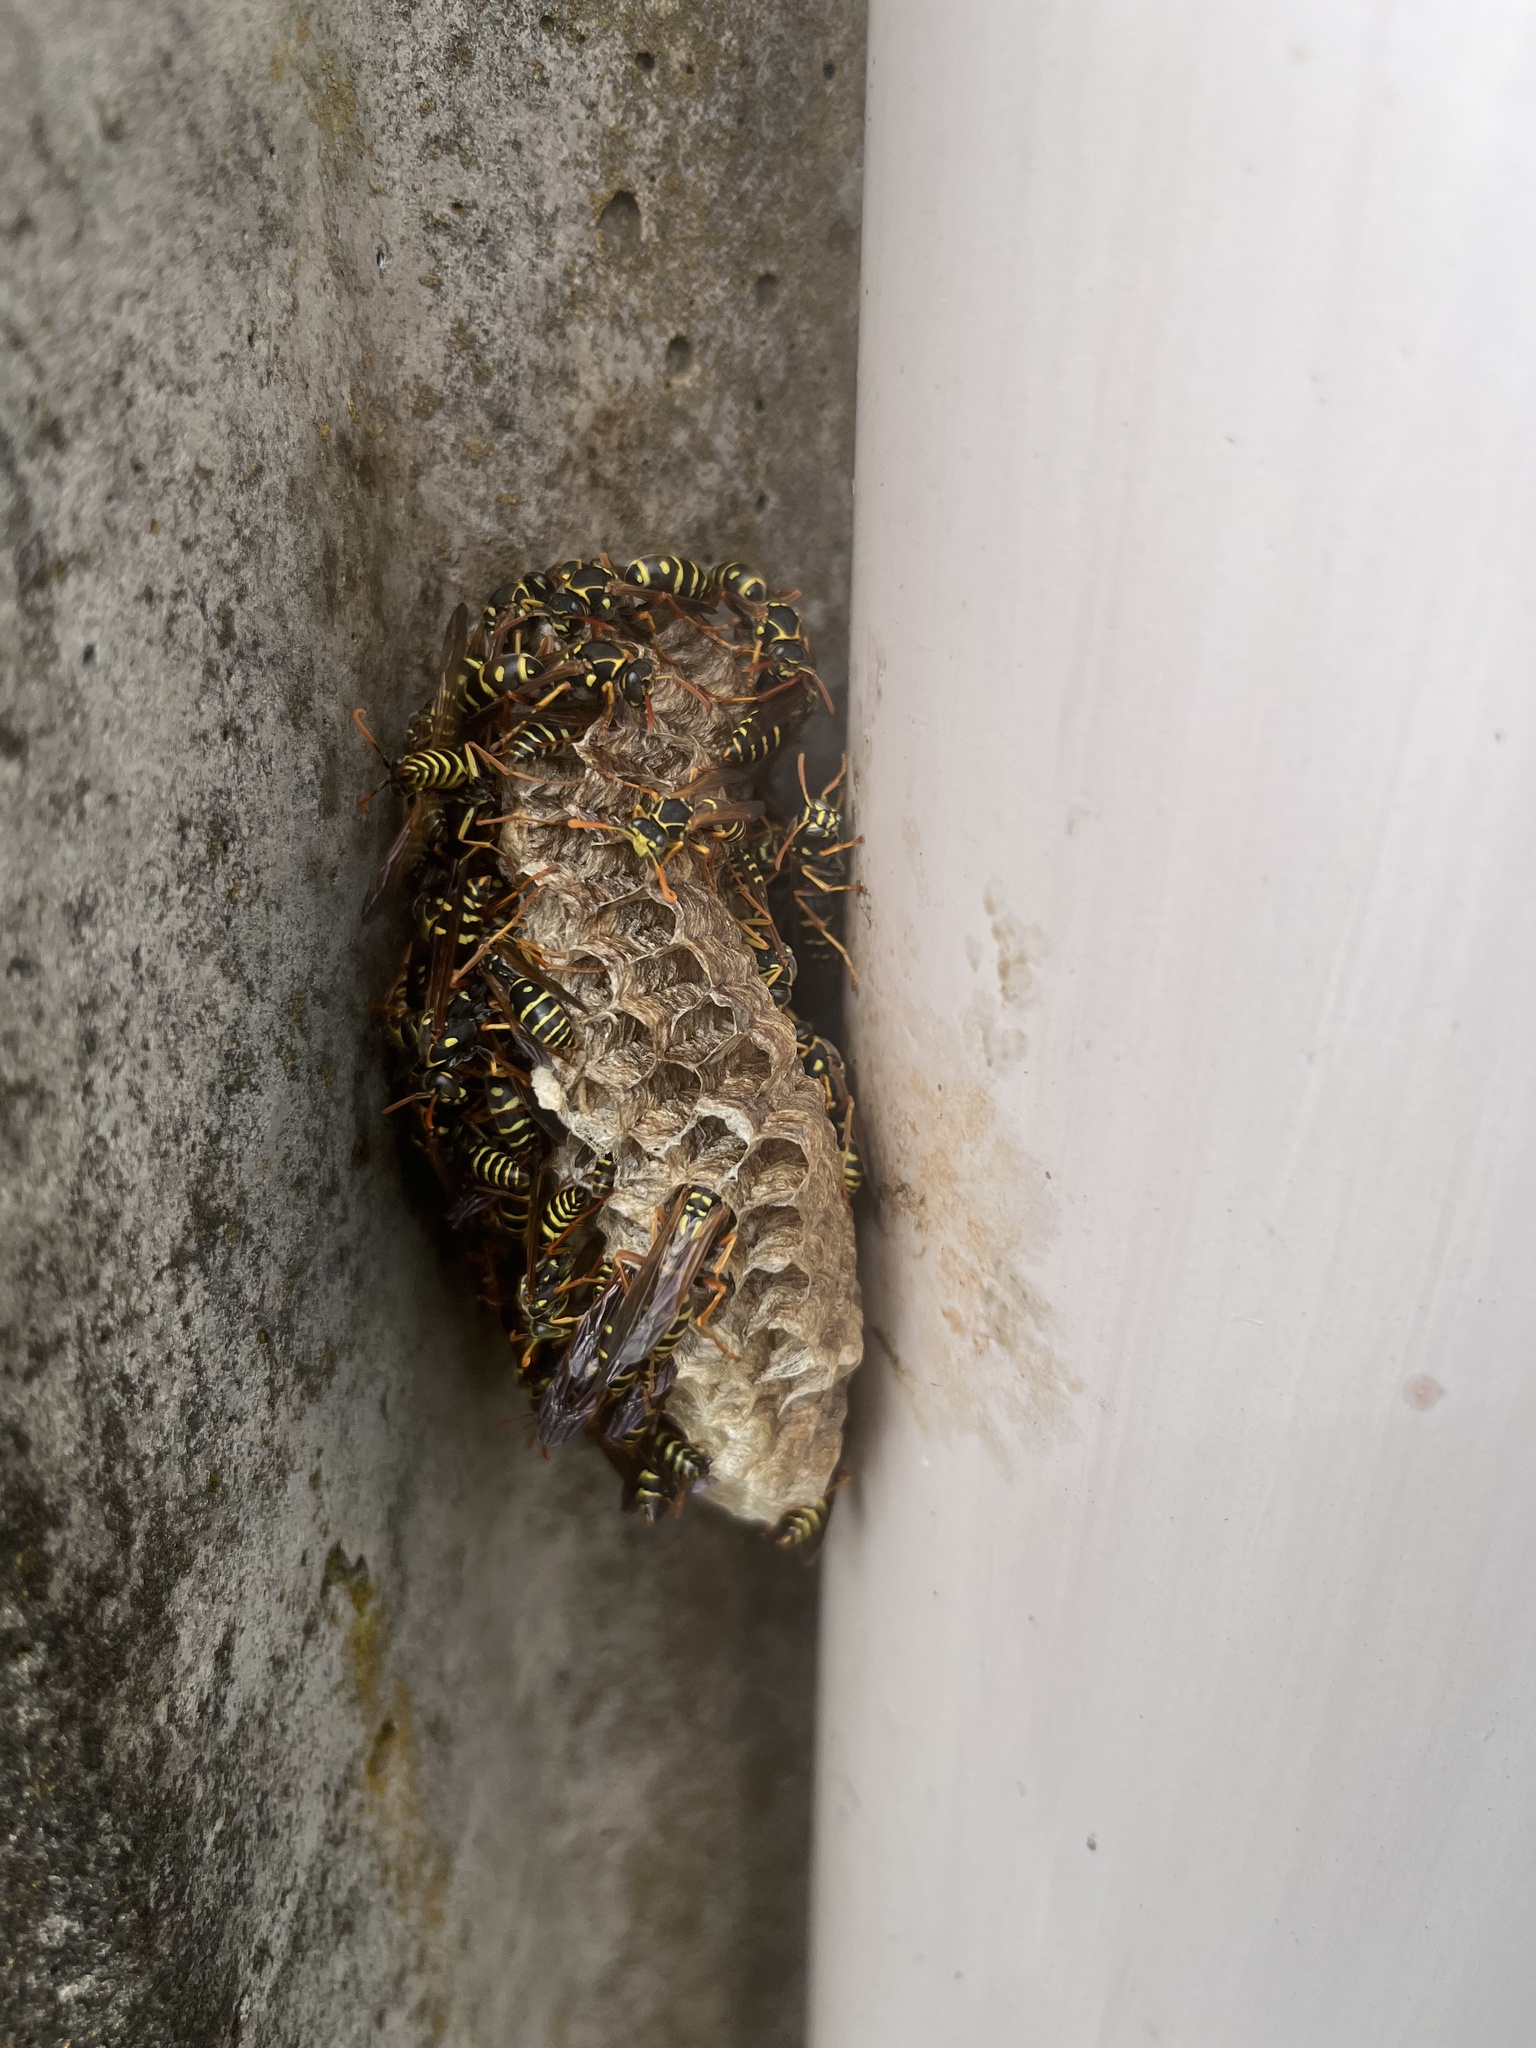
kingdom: Animalia
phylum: Arthropoda
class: Insecta
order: Hymenoptera
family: Eumenidae
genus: Polistes
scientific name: Polistes chinensis
